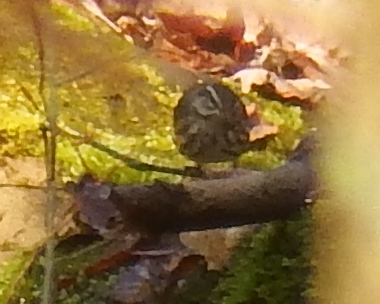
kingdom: Animalia
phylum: Chordata
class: Aves
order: Passeriformes
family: Parulidae
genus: Parkesia
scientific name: Parkesia motacilla
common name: Louisiana waterthrush
